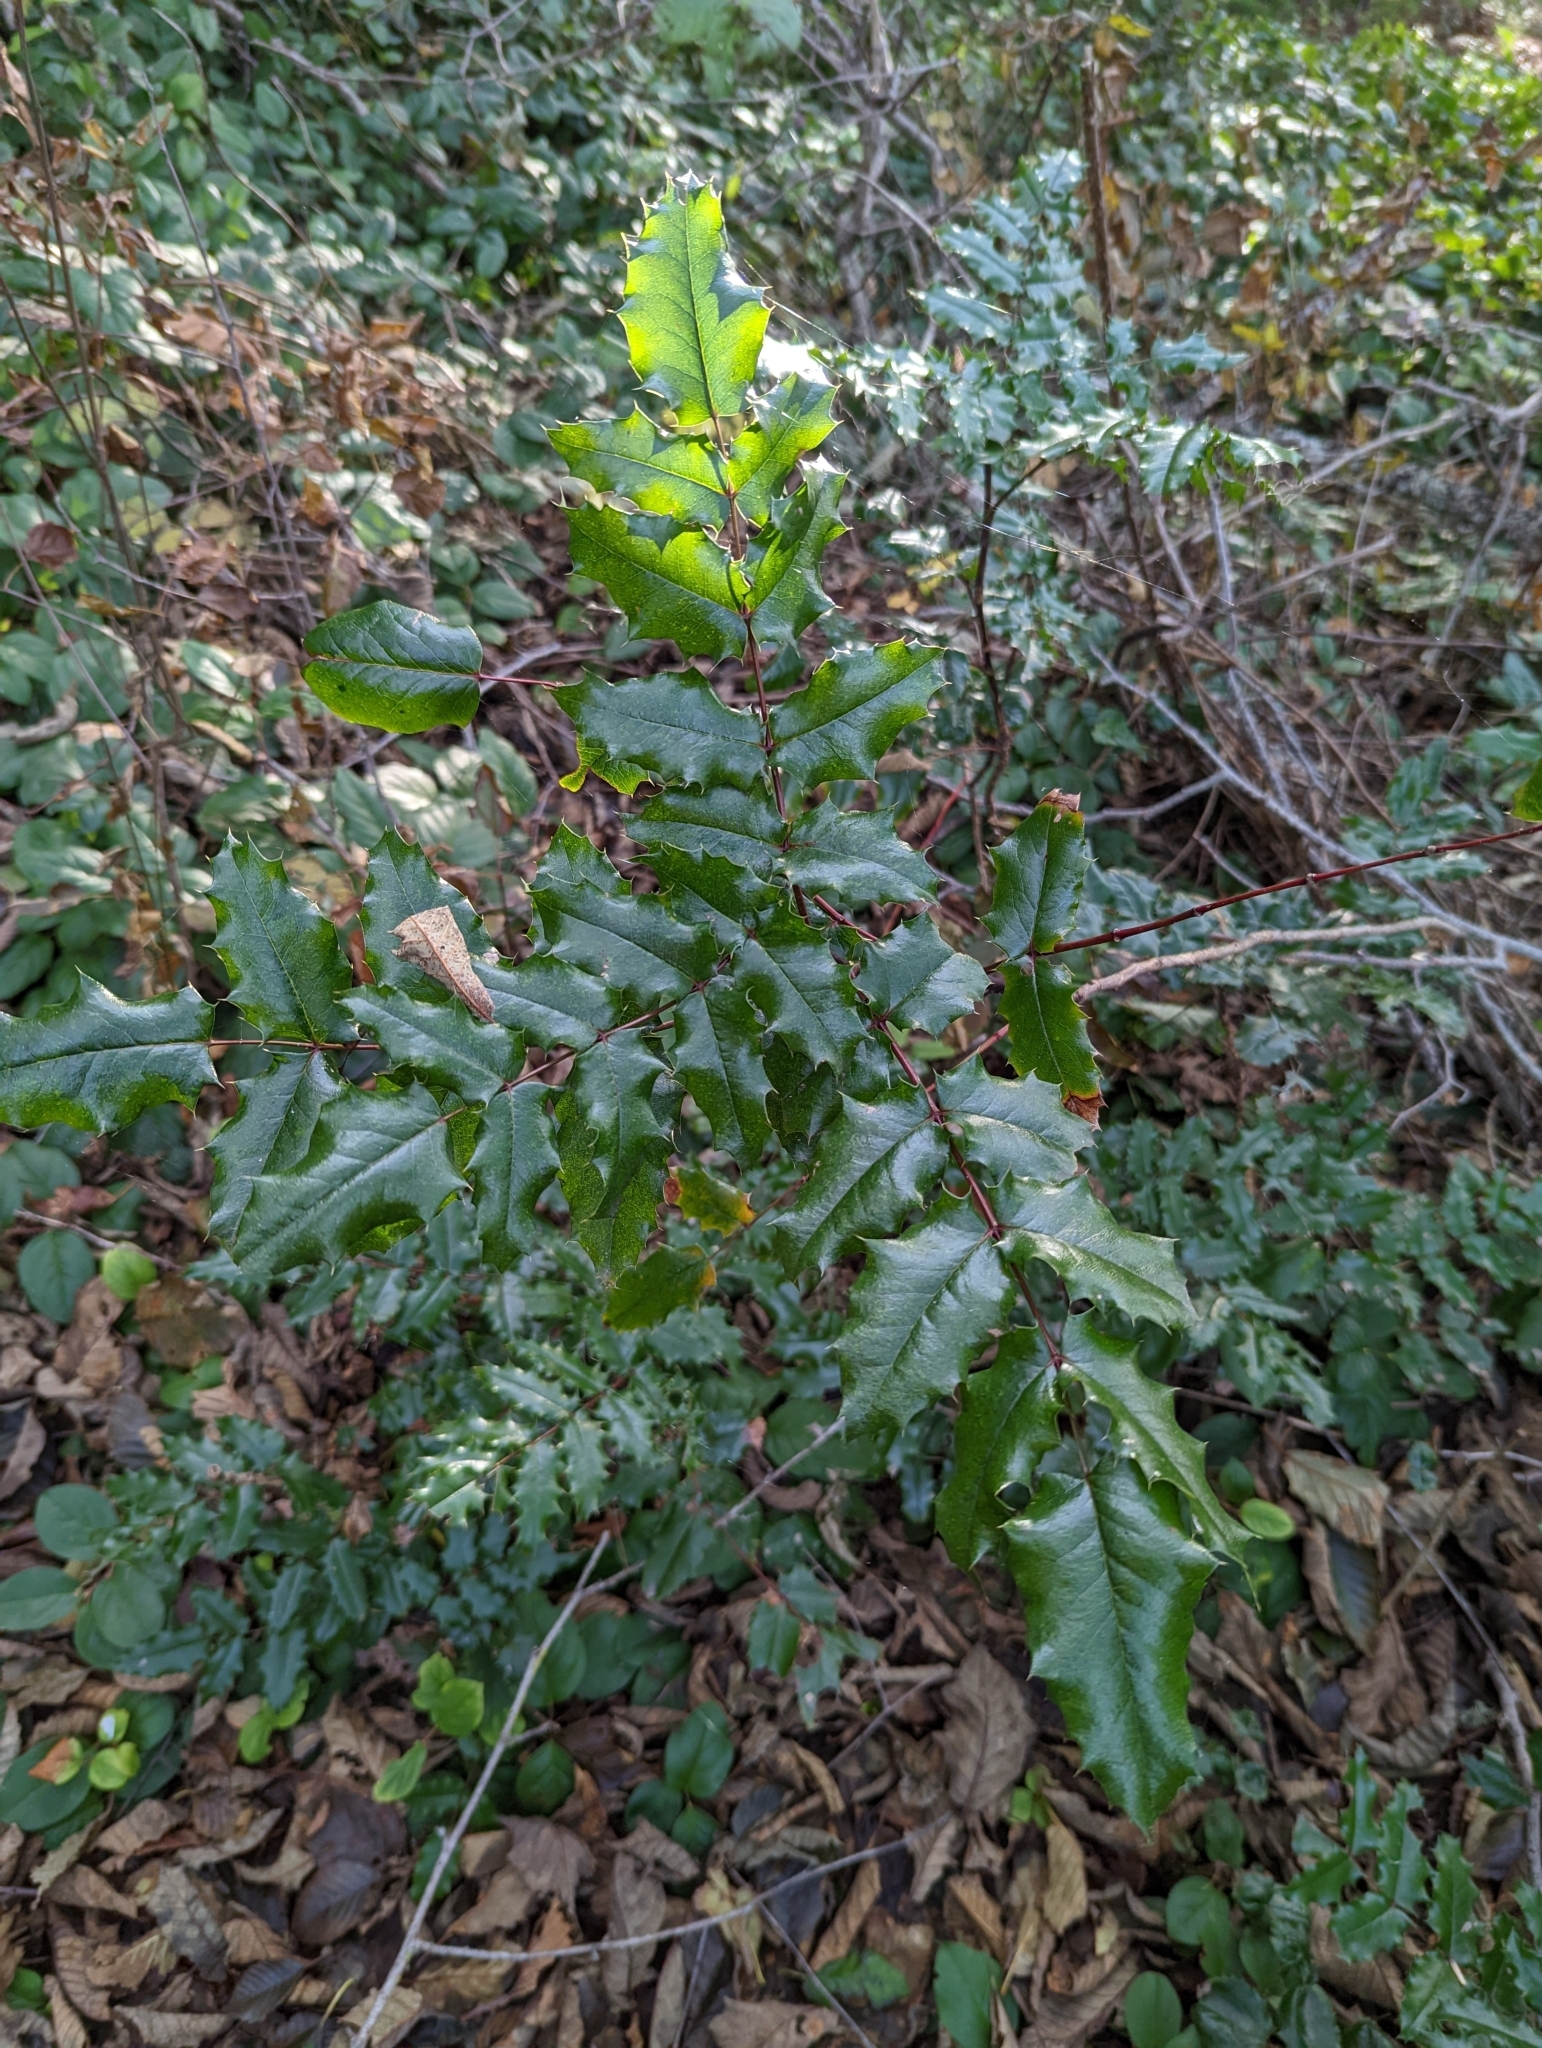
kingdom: Plantae
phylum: Tracheophyta
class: Magnoliopsida
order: Ranunculales
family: Berberidaceae
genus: Mahonia
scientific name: Mahonia aquifolium
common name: Oregon-grape
